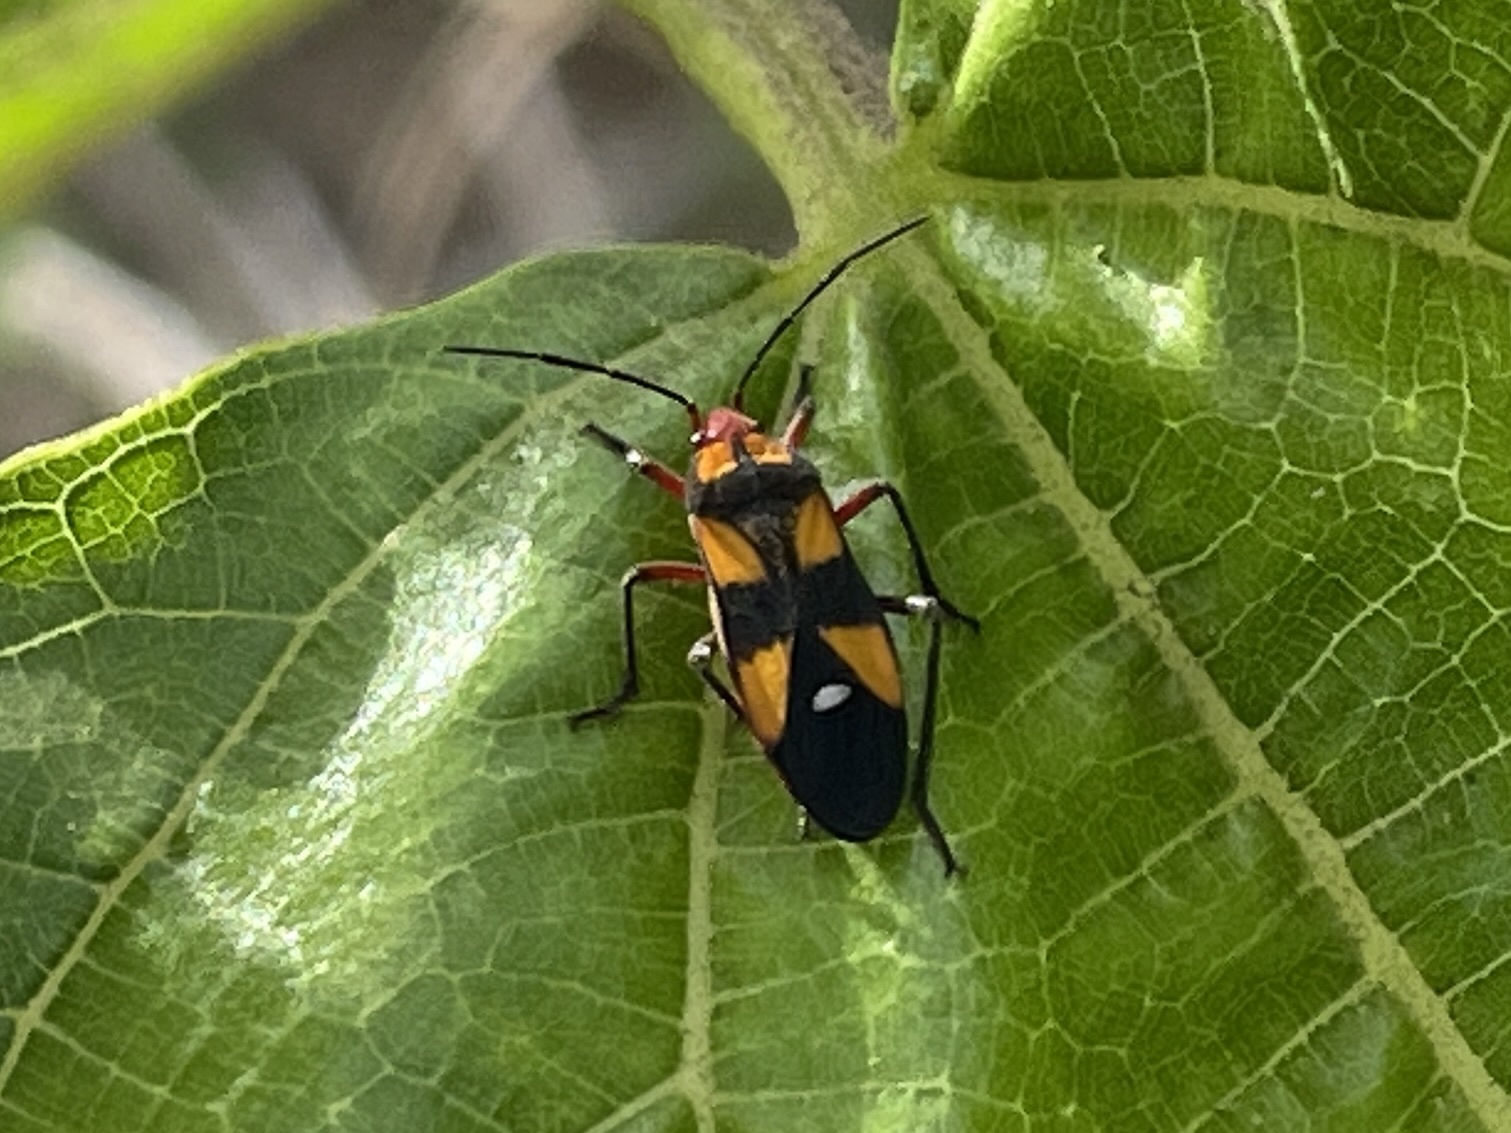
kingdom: Animalia
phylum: Arthropoda
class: Insecta
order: Hemiptera
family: Lygaeidae
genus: Oncopeltus
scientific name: Oncopeltus sexmaculatus
